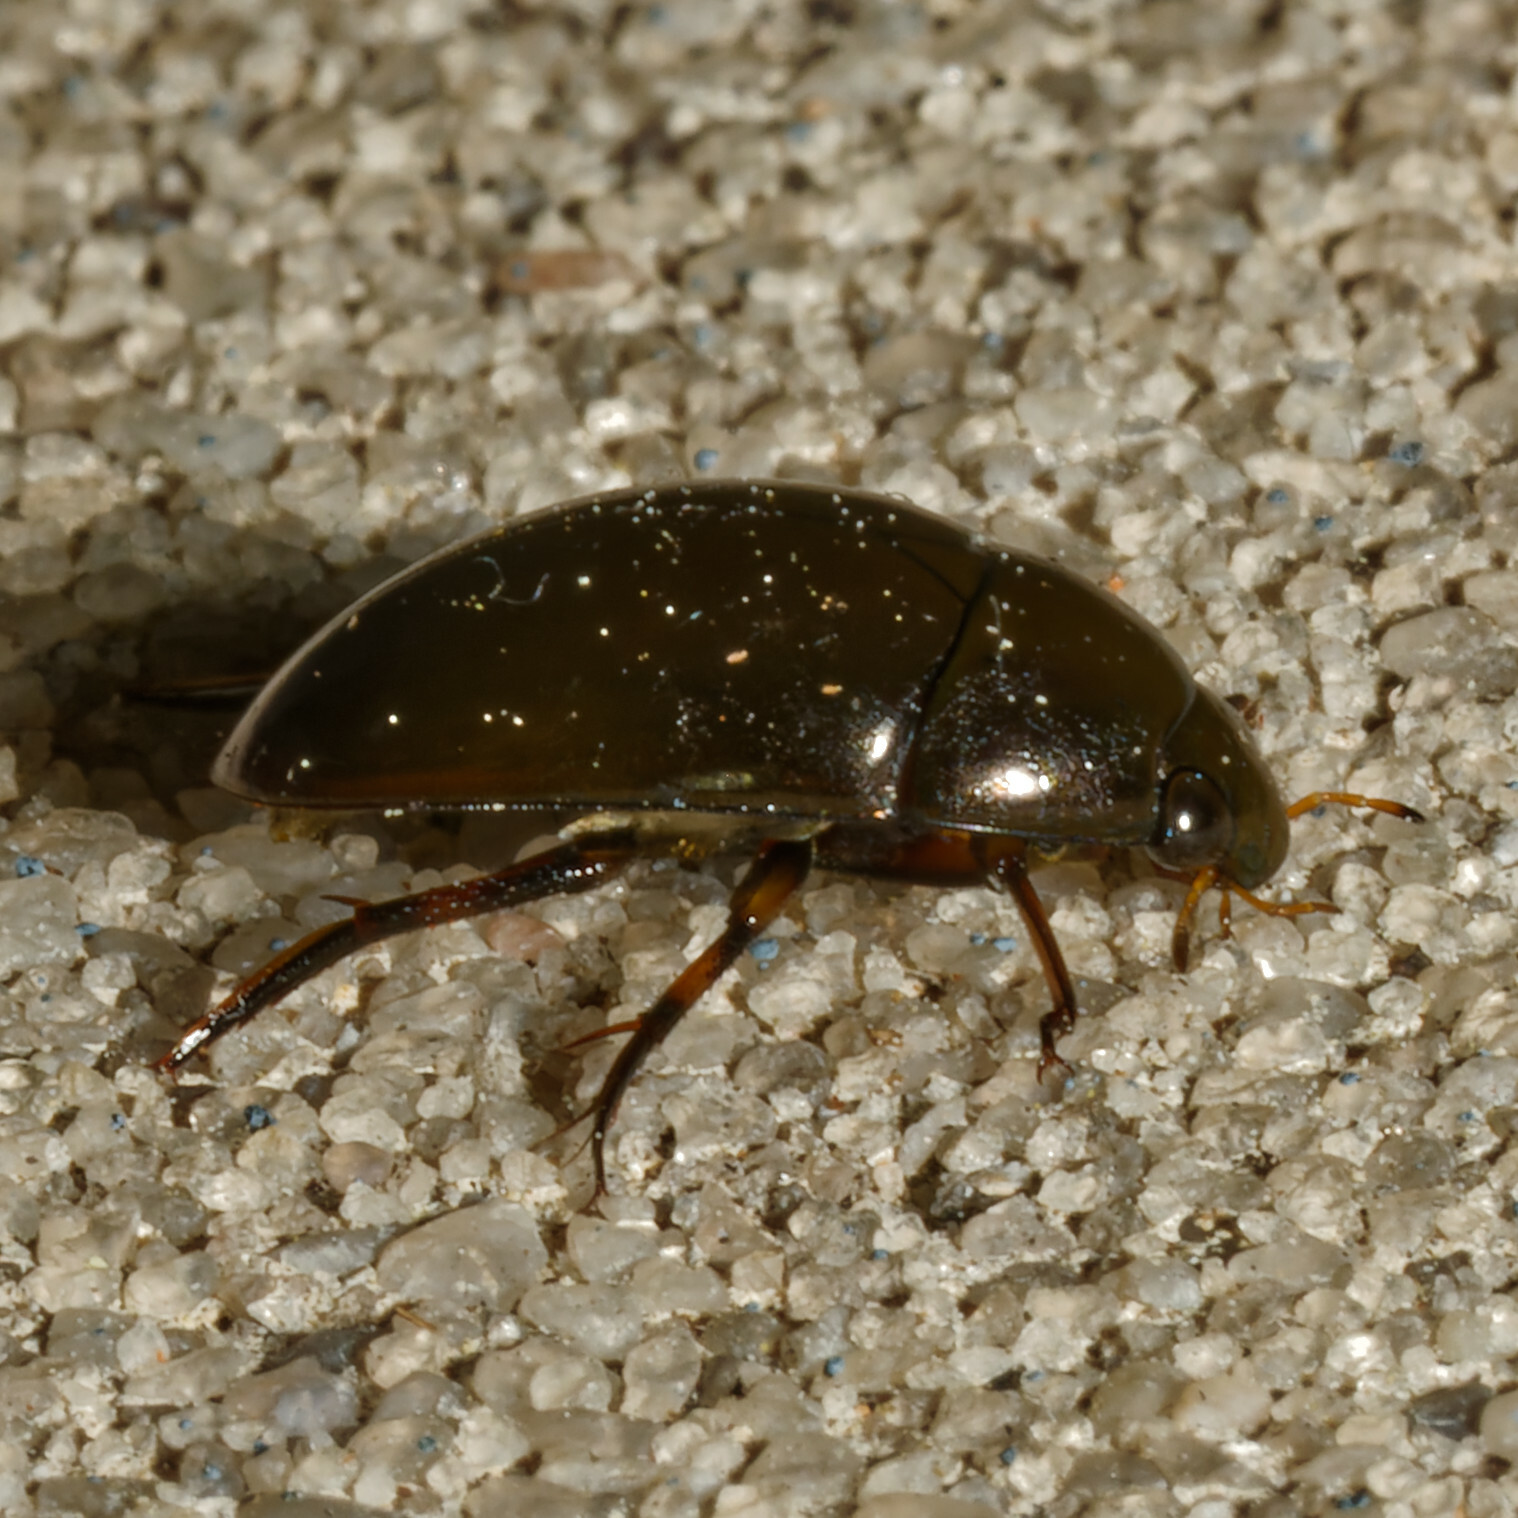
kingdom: Animalia
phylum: Arthropoda
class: Insecta
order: Coleoptera
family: Hydrophilidae
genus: Tropisternus
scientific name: Tropisternus blatchleyi
